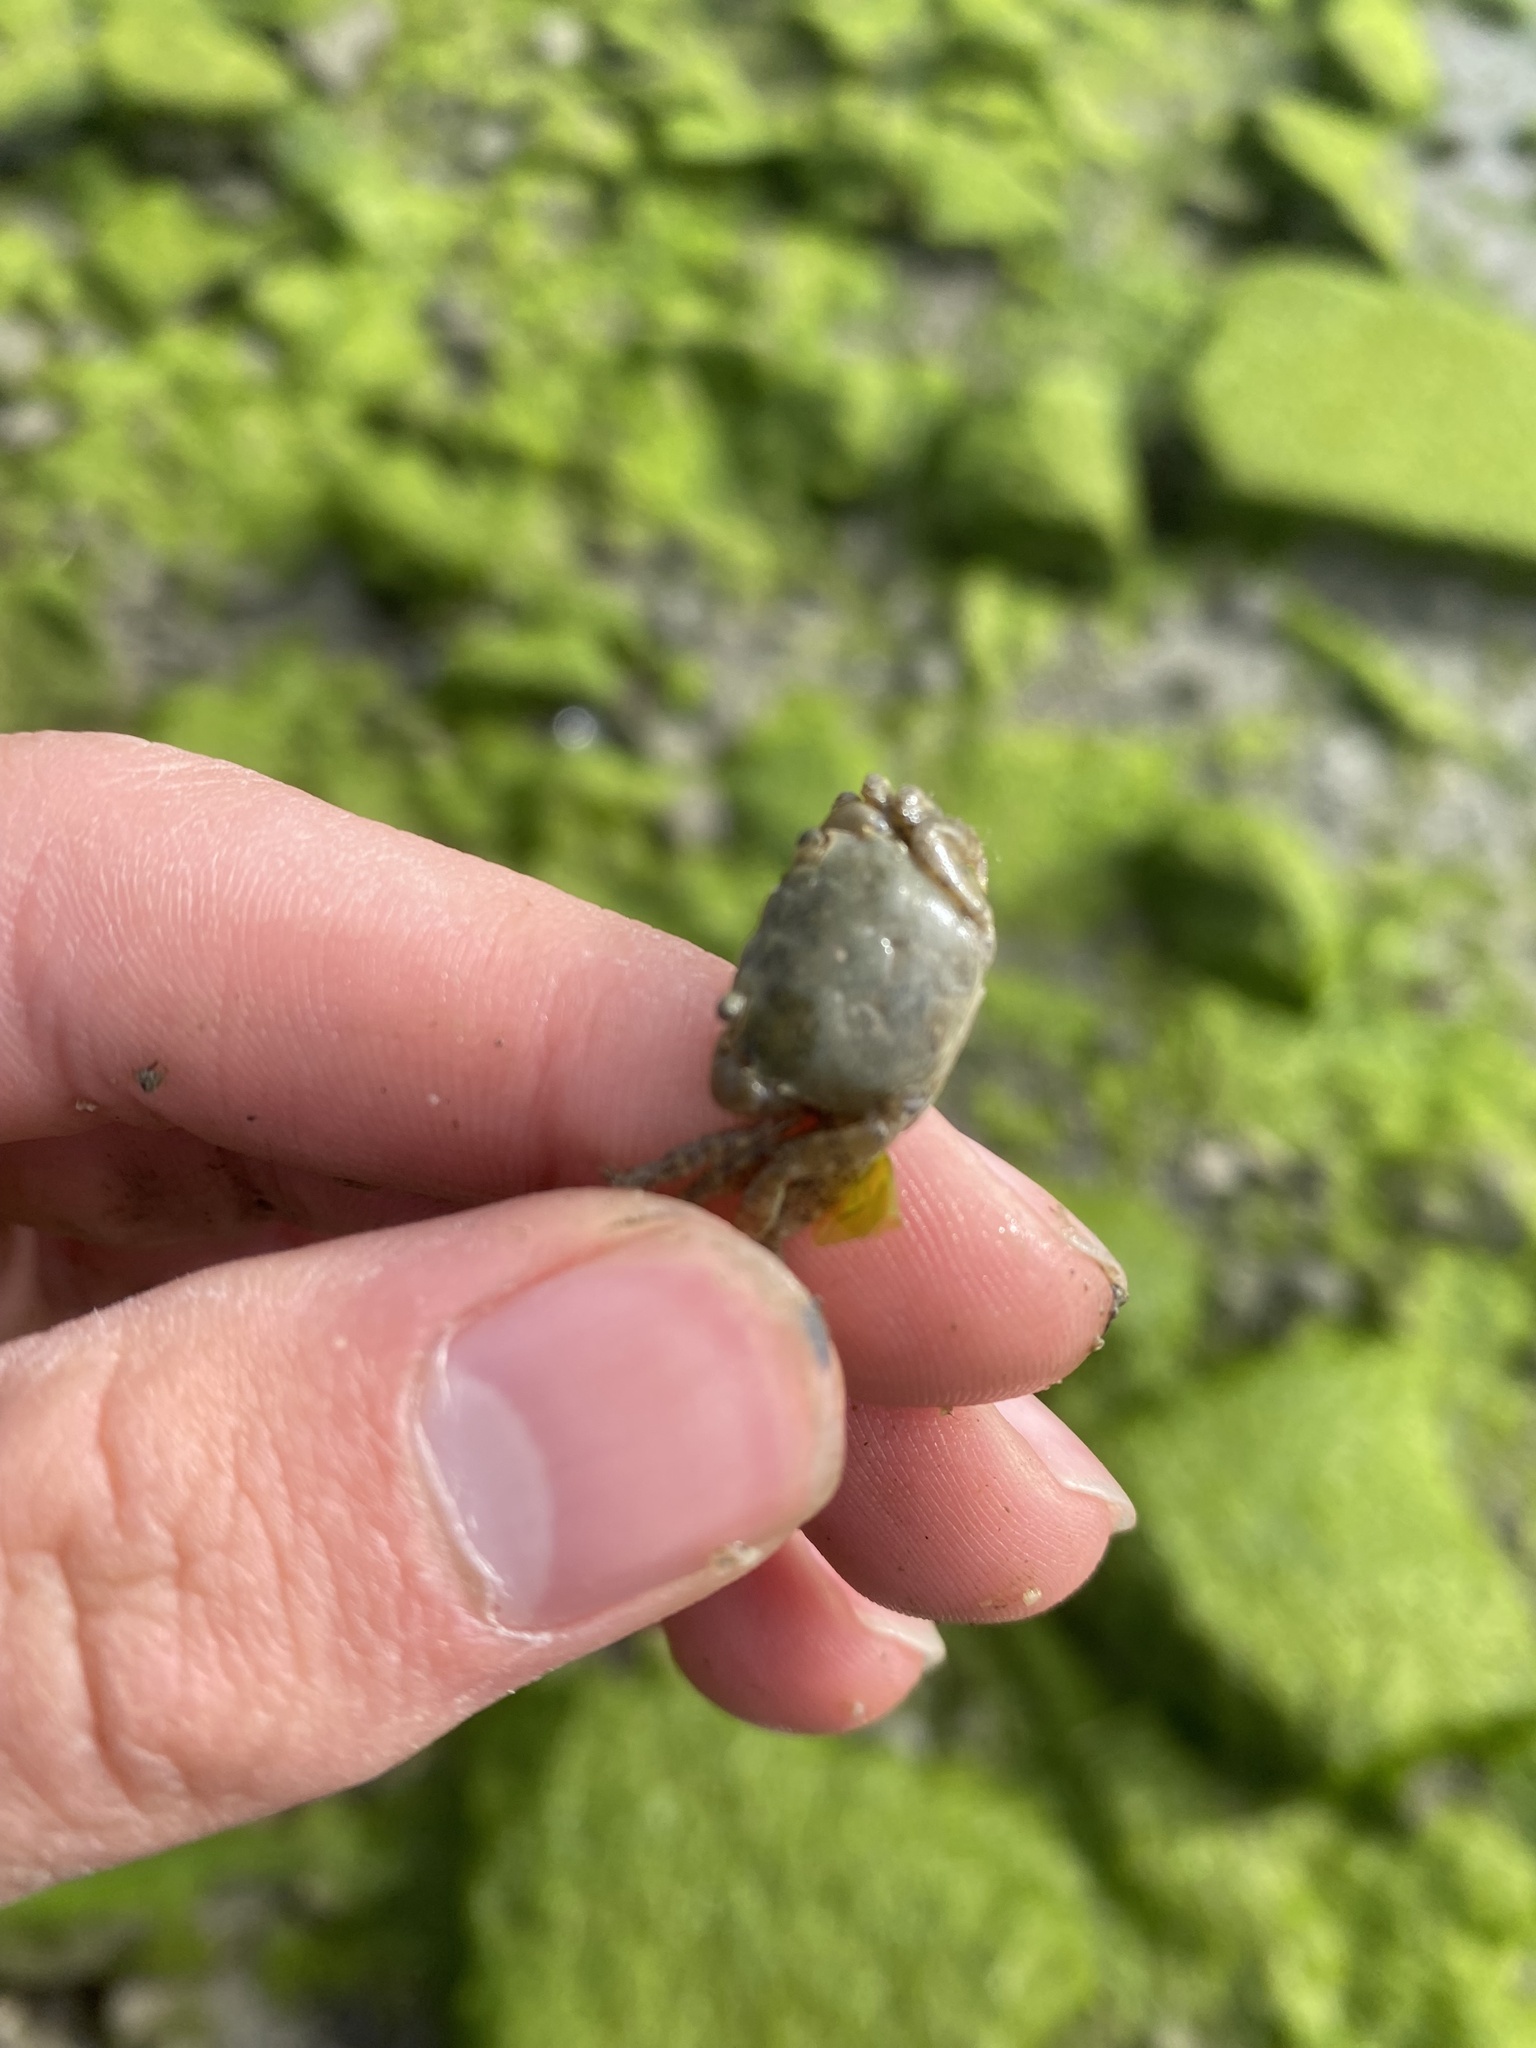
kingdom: Animalia
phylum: Arthropoda
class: Malacostraca
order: Decapoda
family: Varunidae
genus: Hemigrapsus
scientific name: Hemigrapsus oregonensis
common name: Yellow shore crab
